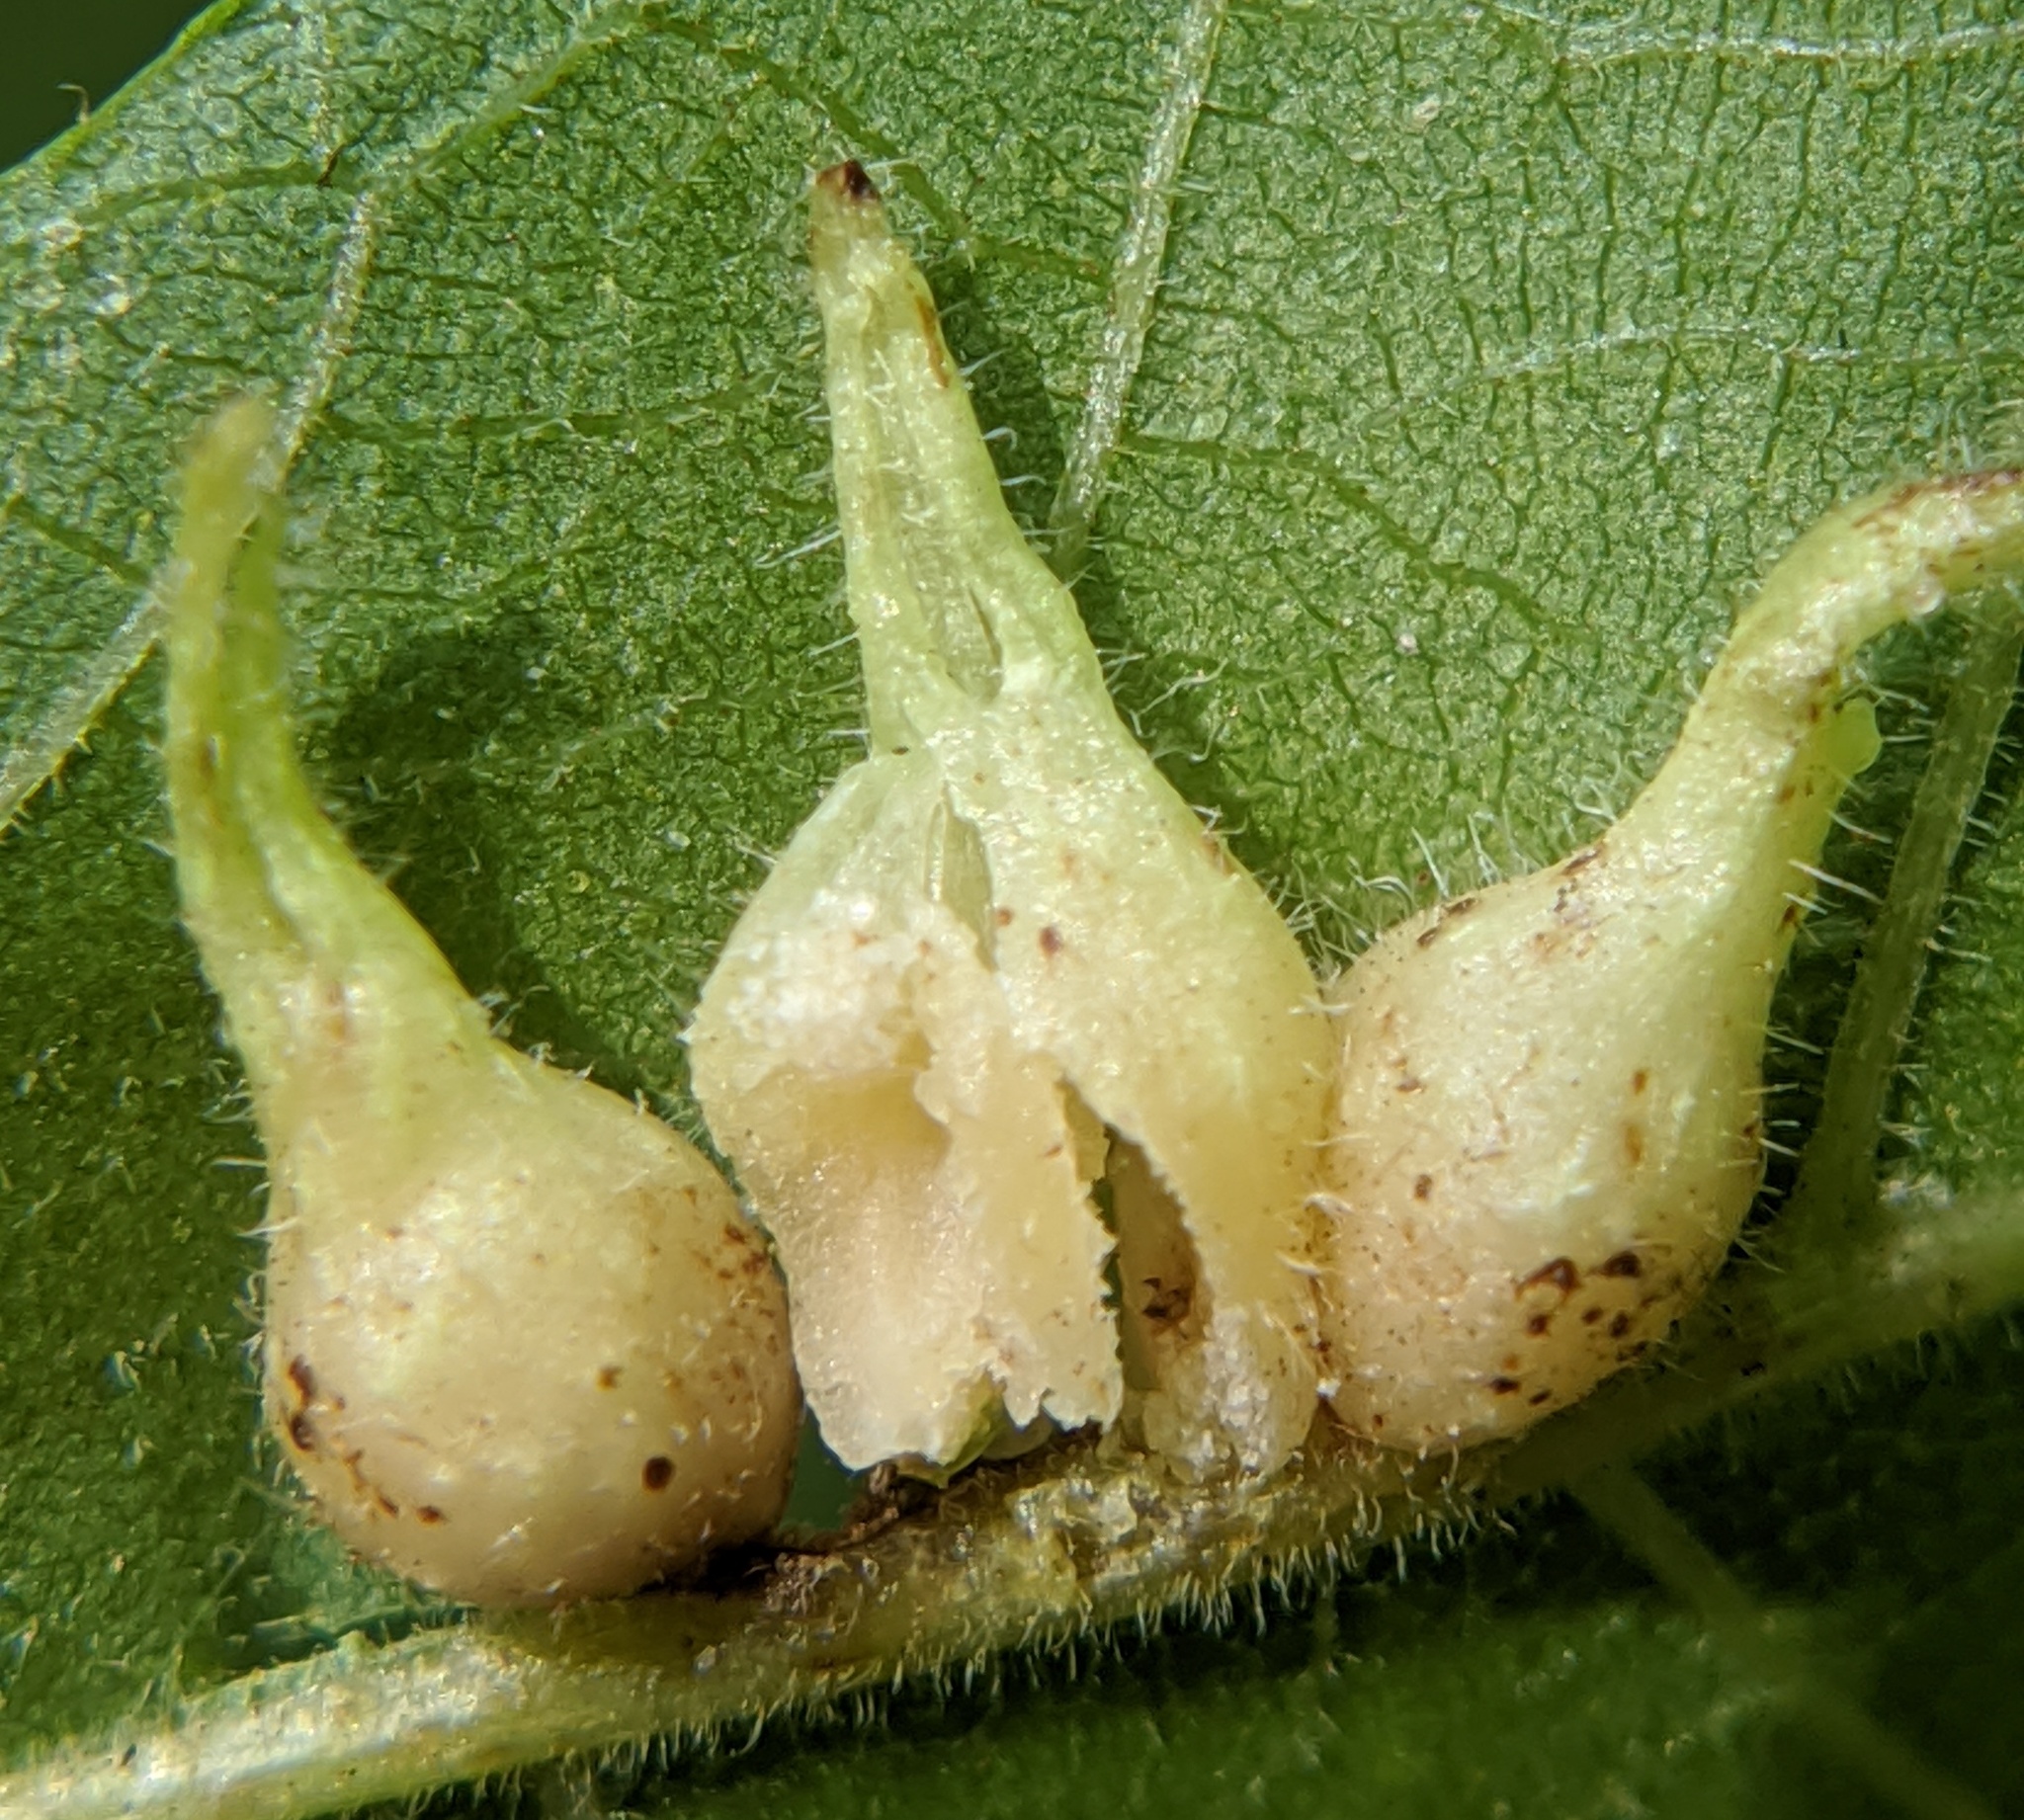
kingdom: Animalia
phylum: Arthropoda
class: Insecta
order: Diptera
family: Cecidomyiidae
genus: Caryomyia
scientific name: Caryomyia ansericollum
